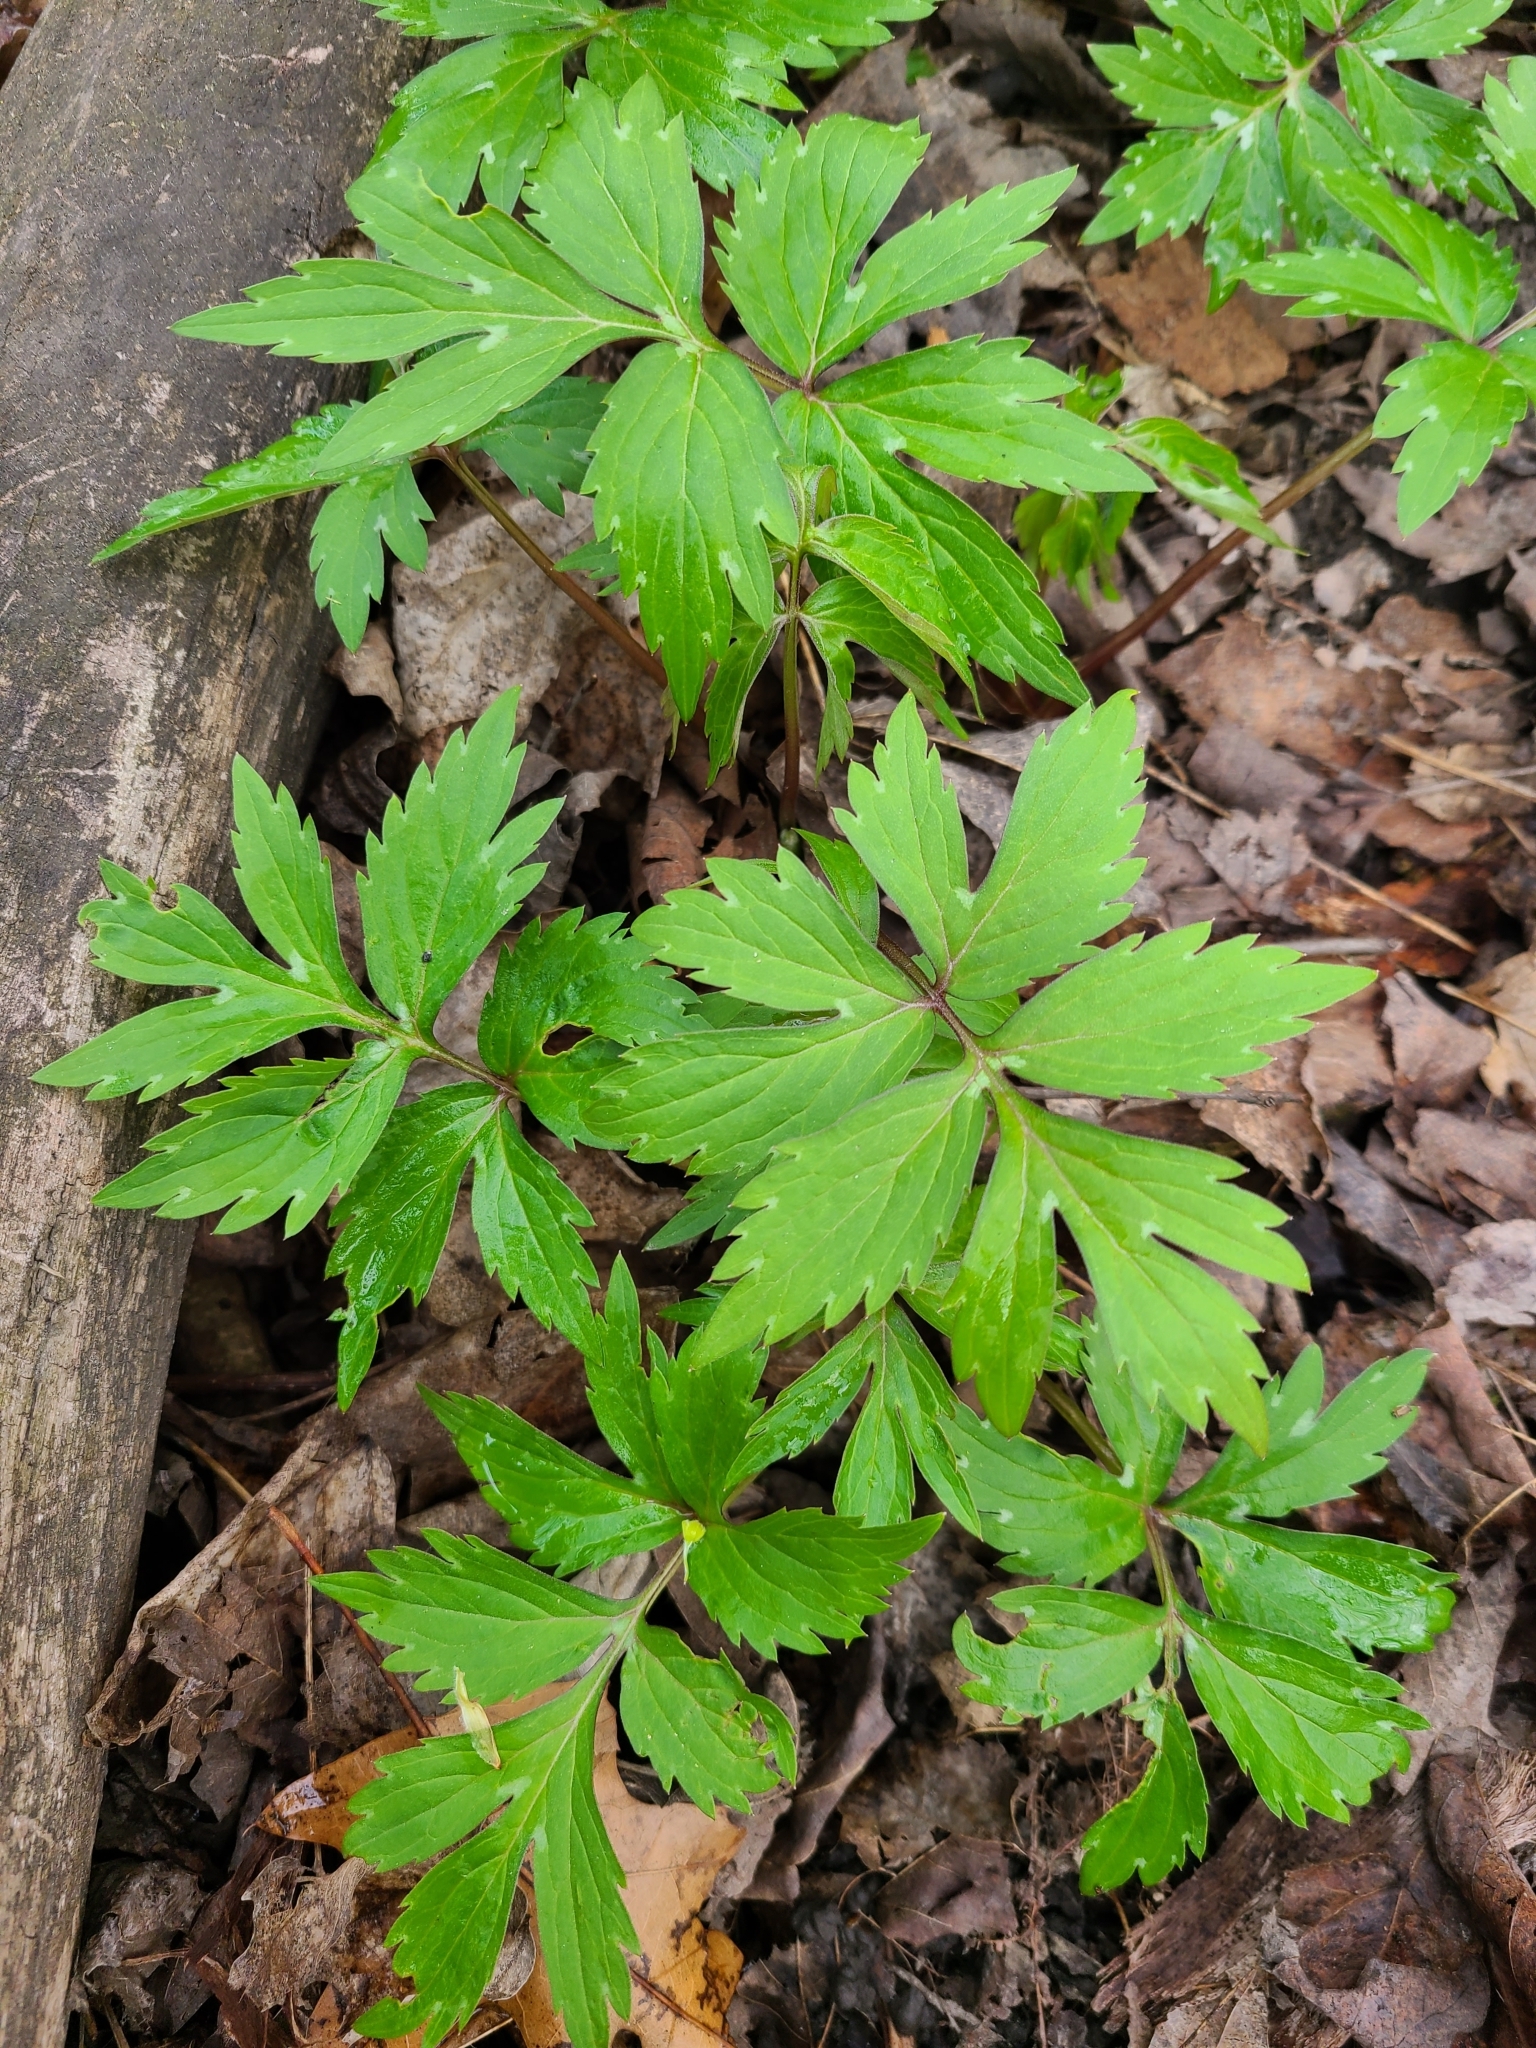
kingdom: Plantae
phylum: Tracheophyta
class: Magnoliopsida
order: Boraginales
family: Hydrophyllaceae
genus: Hydrophyllum
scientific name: Hydrophyllum virginianum
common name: Virginia waterleaf
